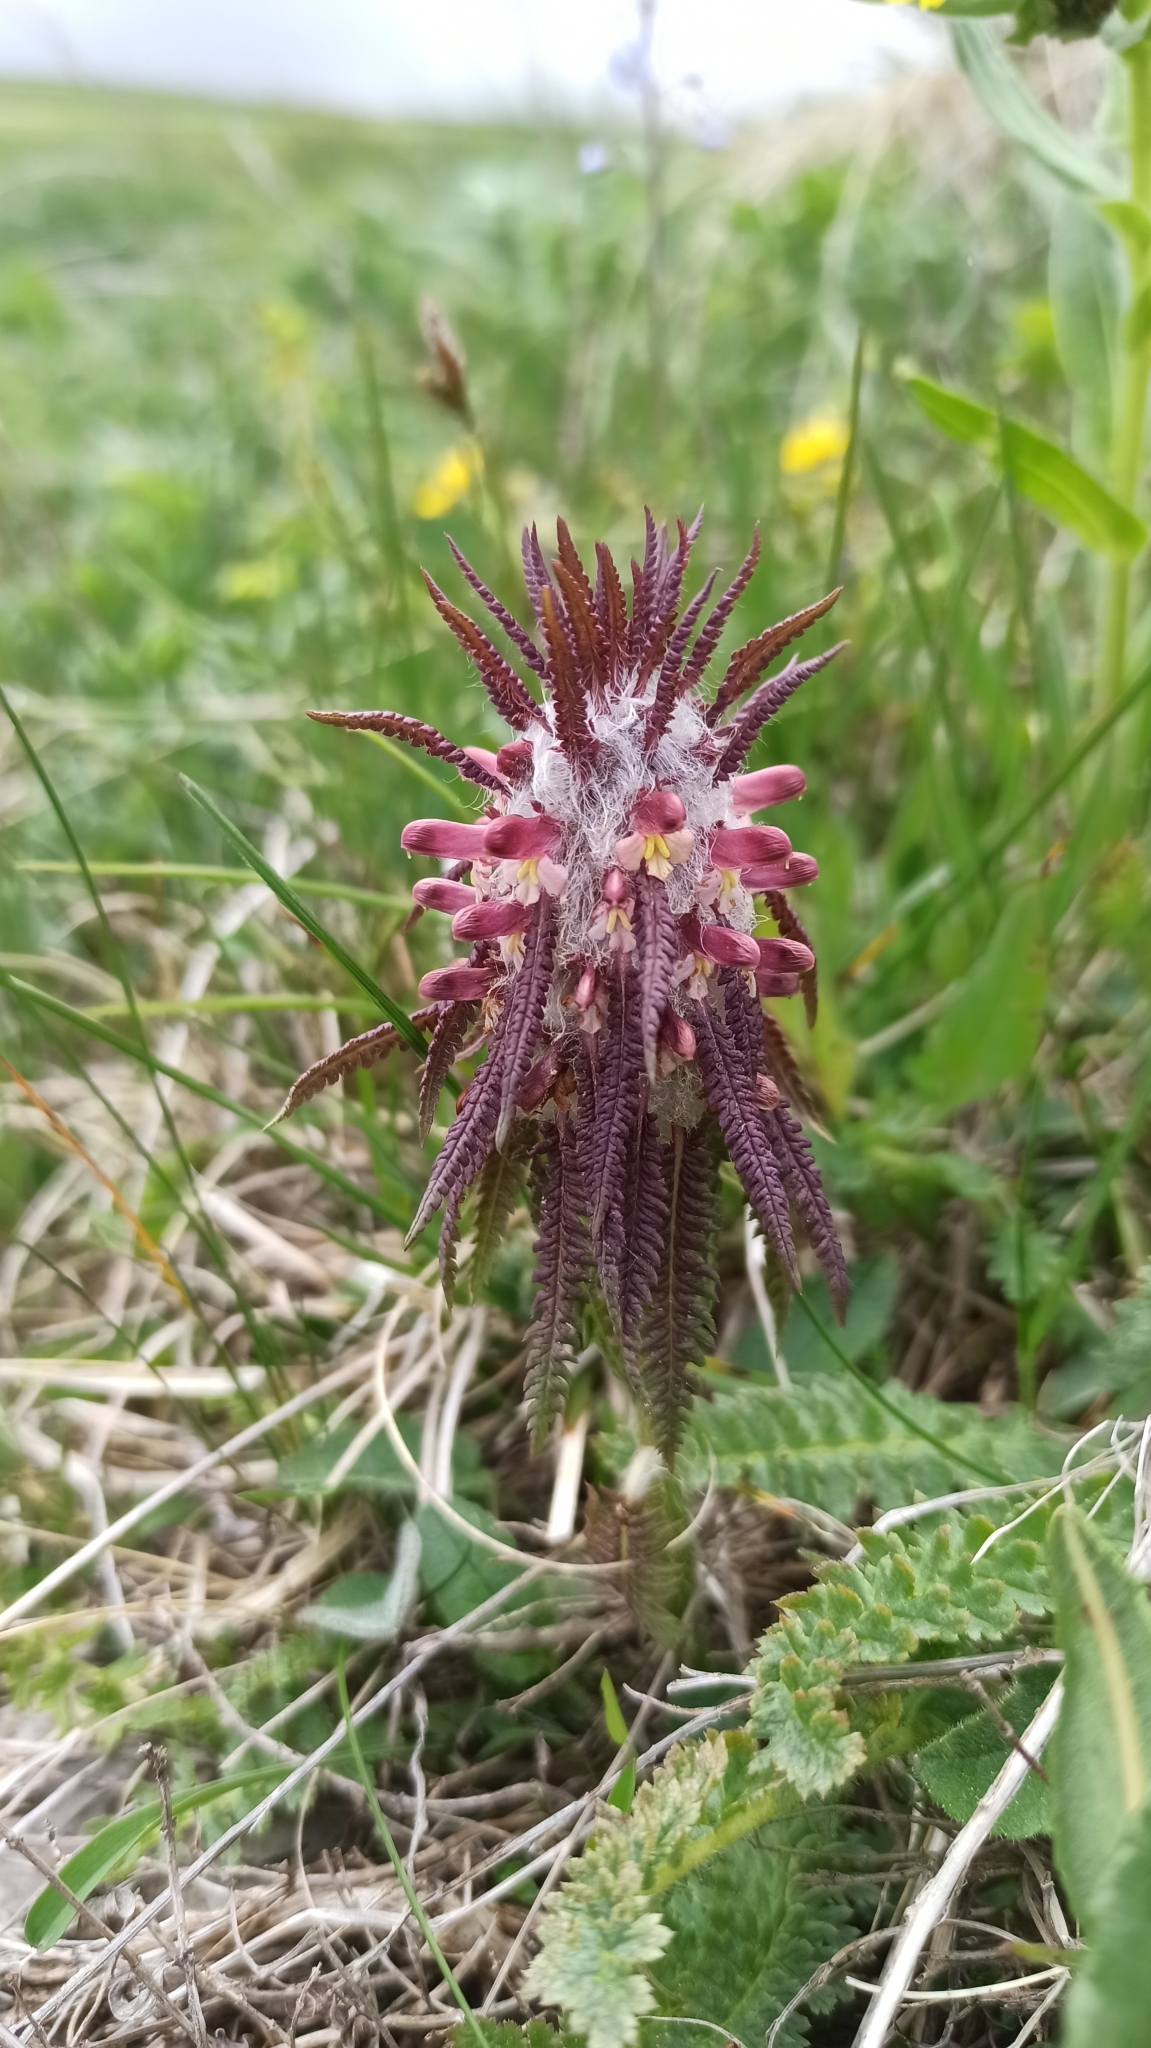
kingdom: Plantae
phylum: Tracheophyta
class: Magnoliopsida
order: Lamiales
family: Orobanchaceae
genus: Pedicularis
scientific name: Pedicularis wilhelmsiana
